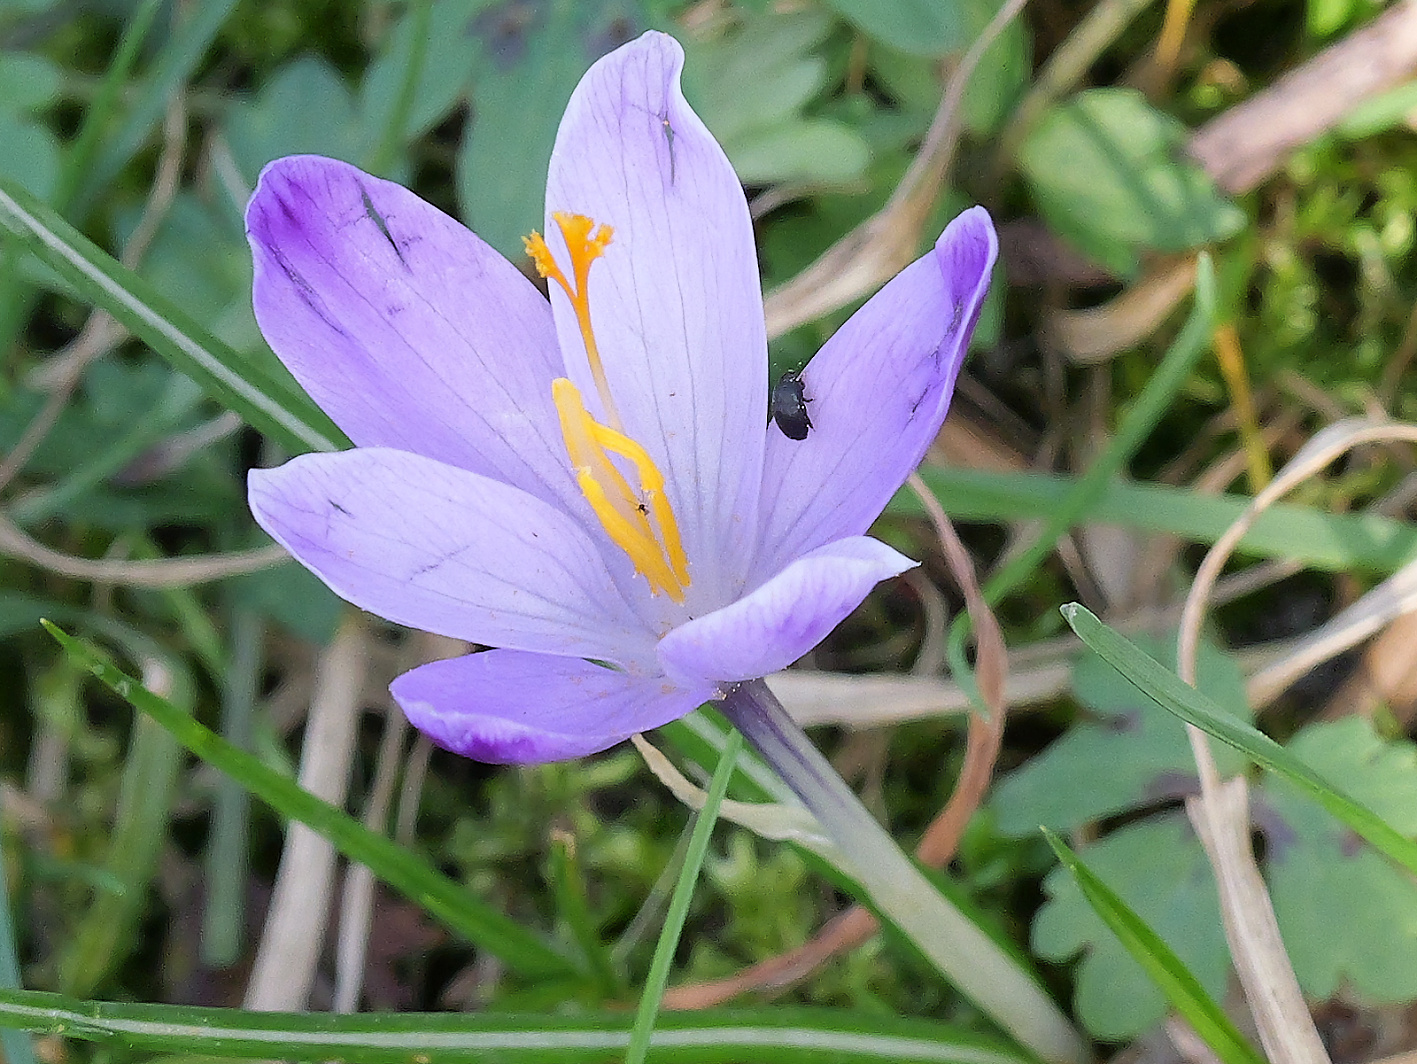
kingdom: Plantae
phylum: Tracheophyta
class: Liliopsida
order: Asparagales
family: Iridaceae
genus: Crocus
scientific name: Crocus heuffelianus
